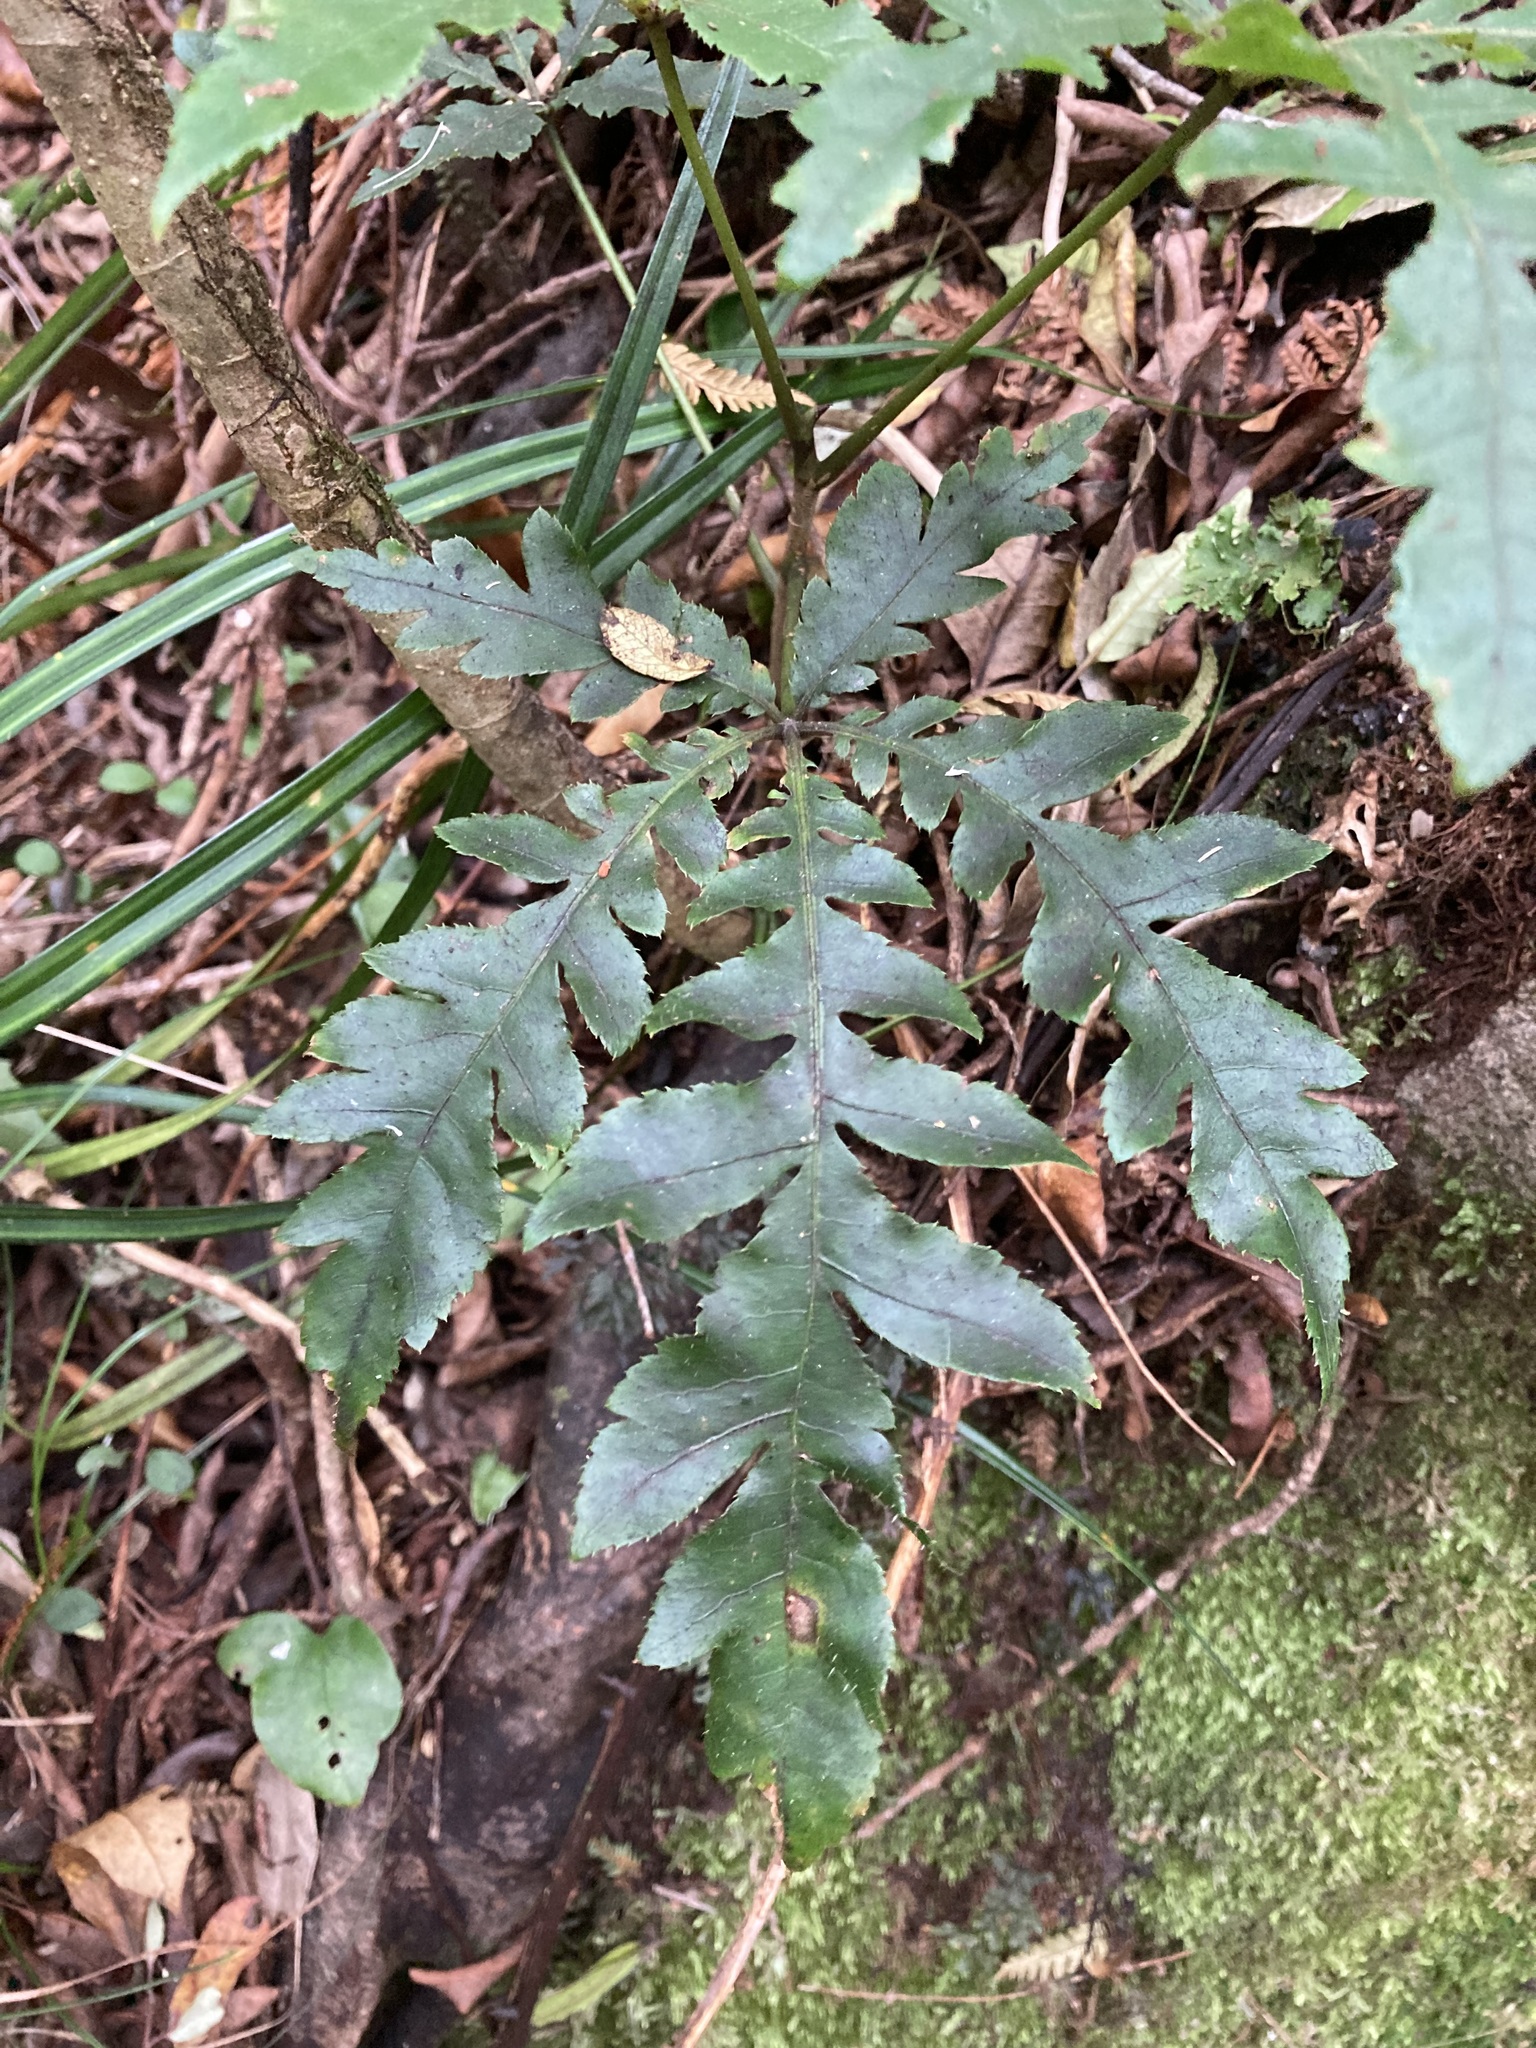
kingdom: Plantae
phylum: Tracheophyta
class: Magnoliopsida
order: Apiales
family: Araliaceae
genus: Schefflera
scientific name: Schefflera digitata
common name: Pate
